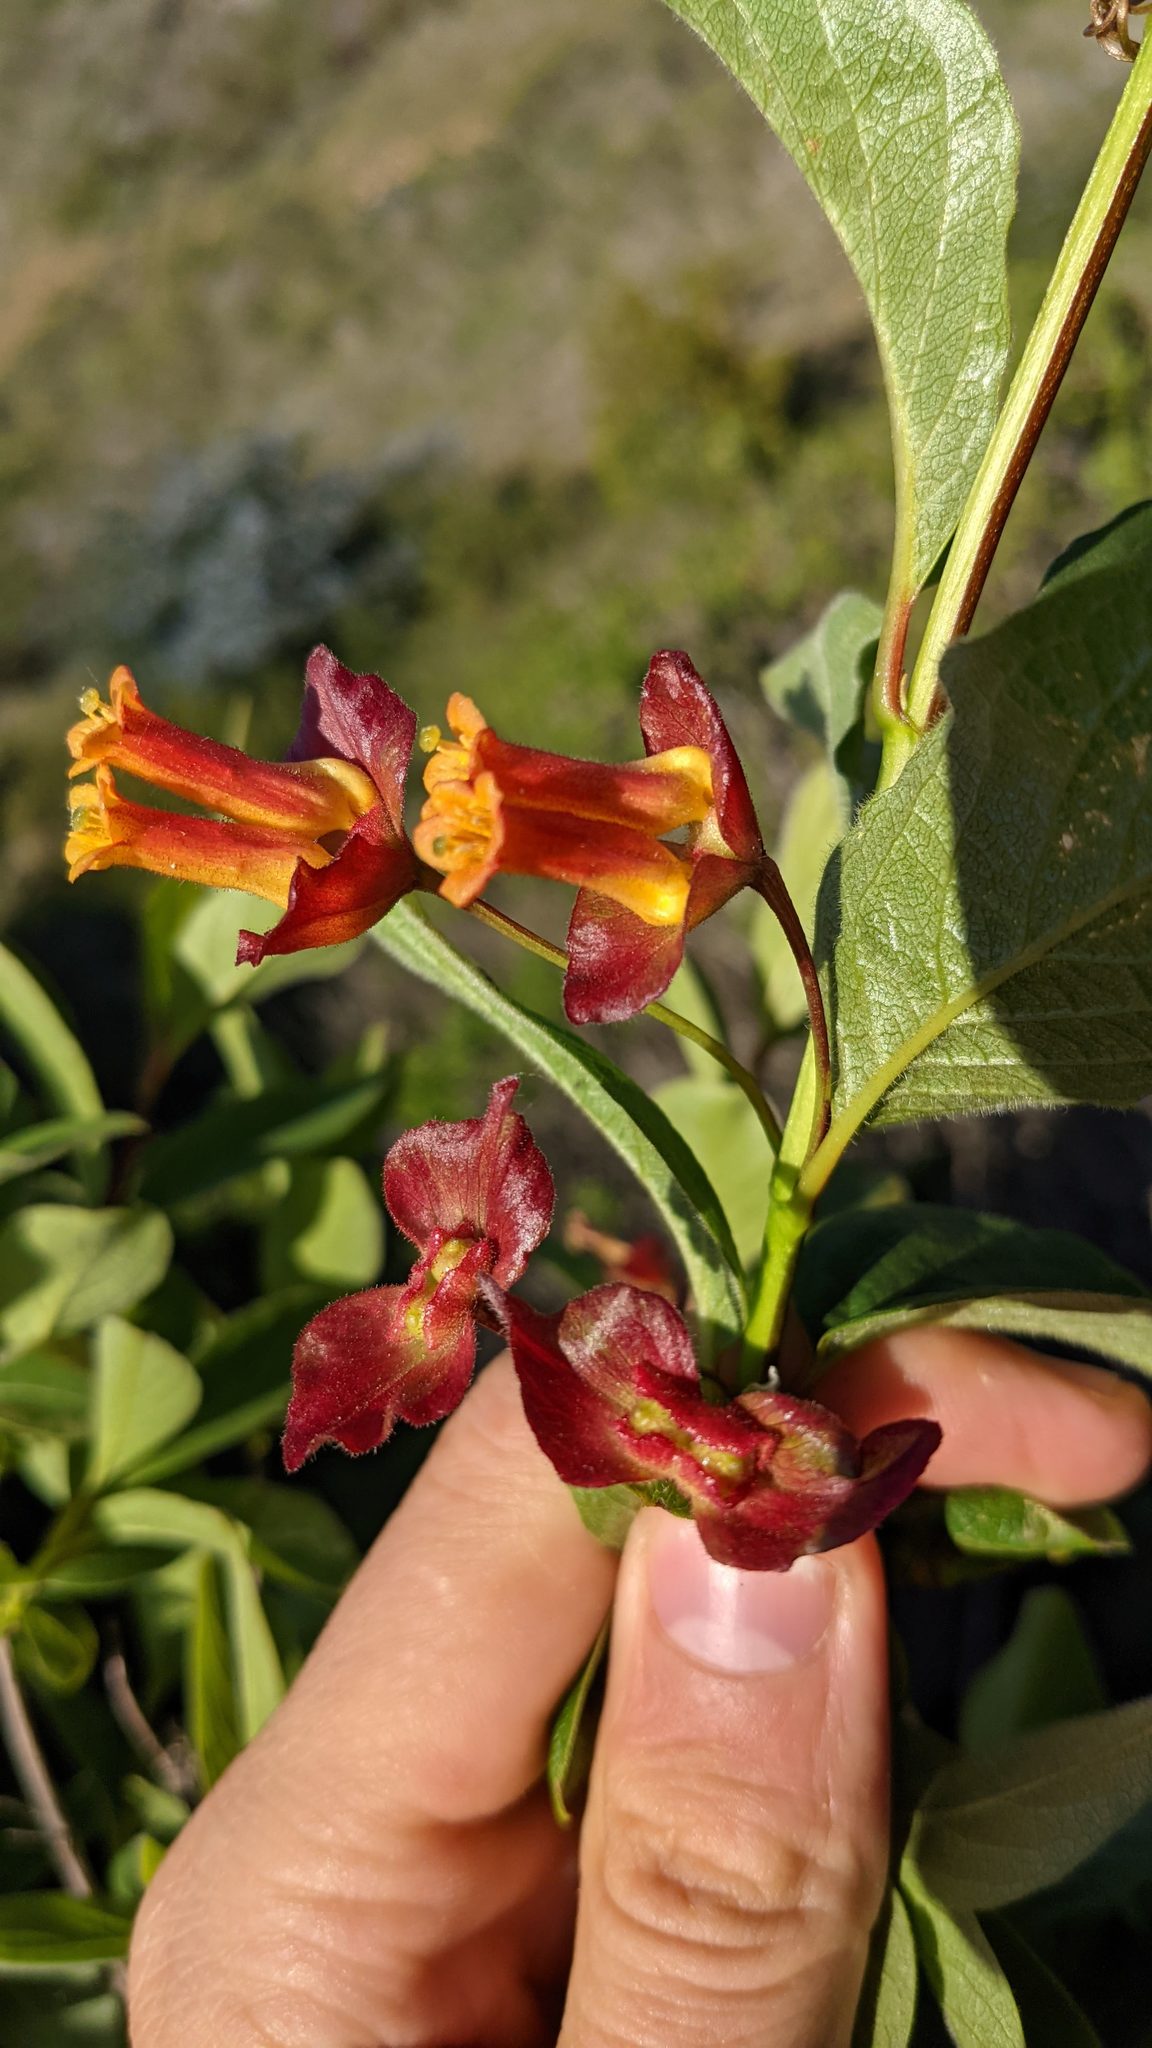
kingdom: Plantae
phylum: Tracheophyta
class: Magnoliopsida
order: Dipsacales
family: Caprifoliaceae
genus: Lonicera
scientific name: Lonicera involucrata
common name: Californian honeysuckle
